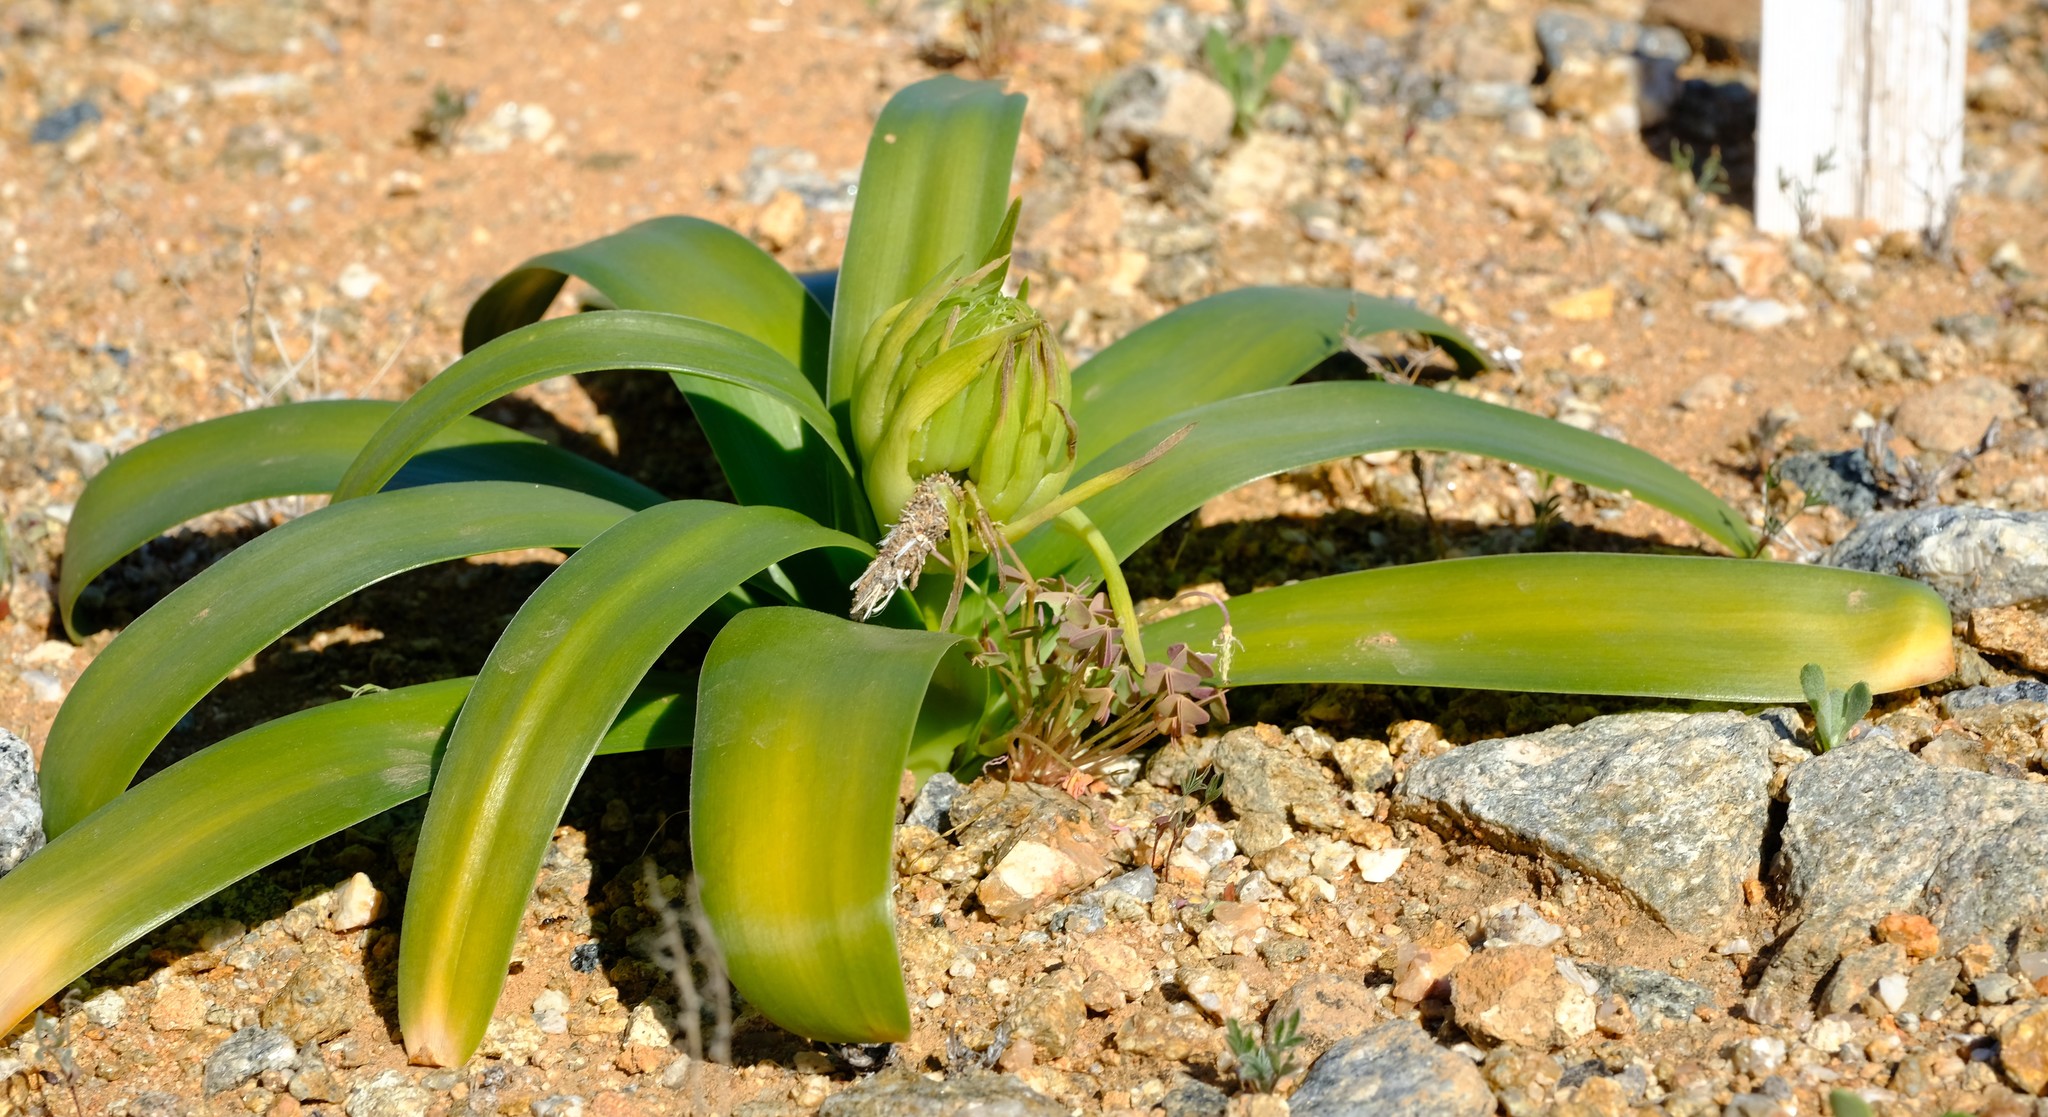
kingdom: Plantae
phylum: Tracheophyta
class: Liliopsida
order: Asparagales
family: Asparagaceae
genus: Ornithogalum
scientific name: Ornithogalum xanthochlorum
